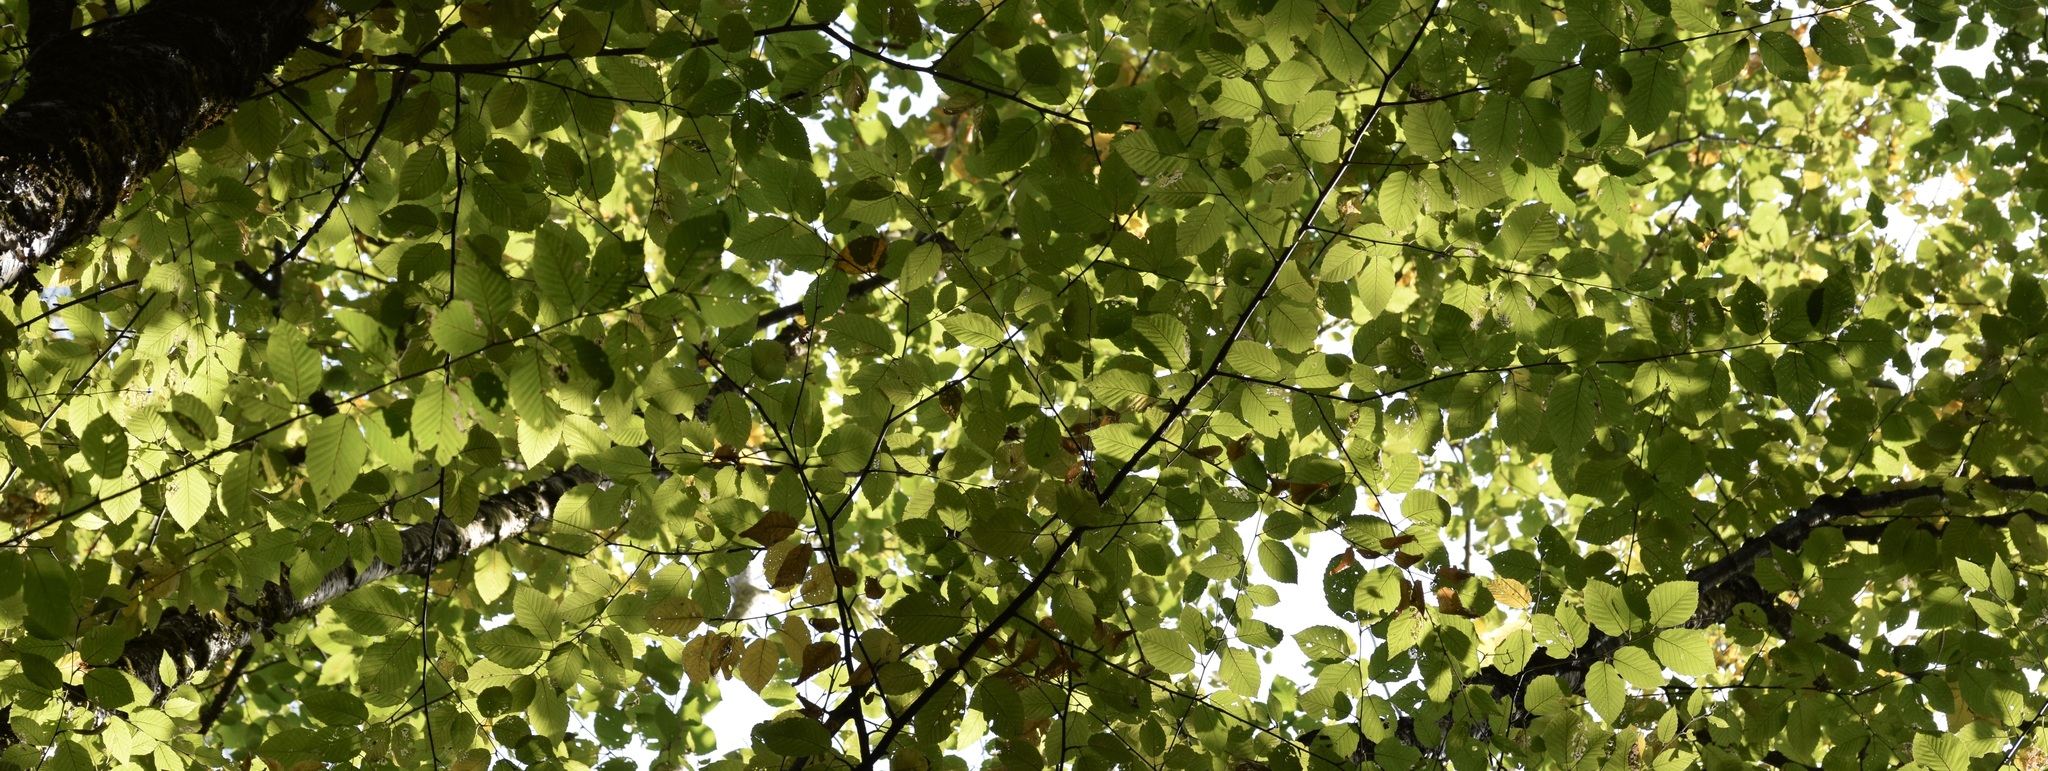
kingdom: Plantae
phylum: Tracheophyta
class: Magnoliopsida
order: Fagales
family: Betulaceae
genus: Betula
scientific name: Betula alleghaniensis
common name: Yellow birch
